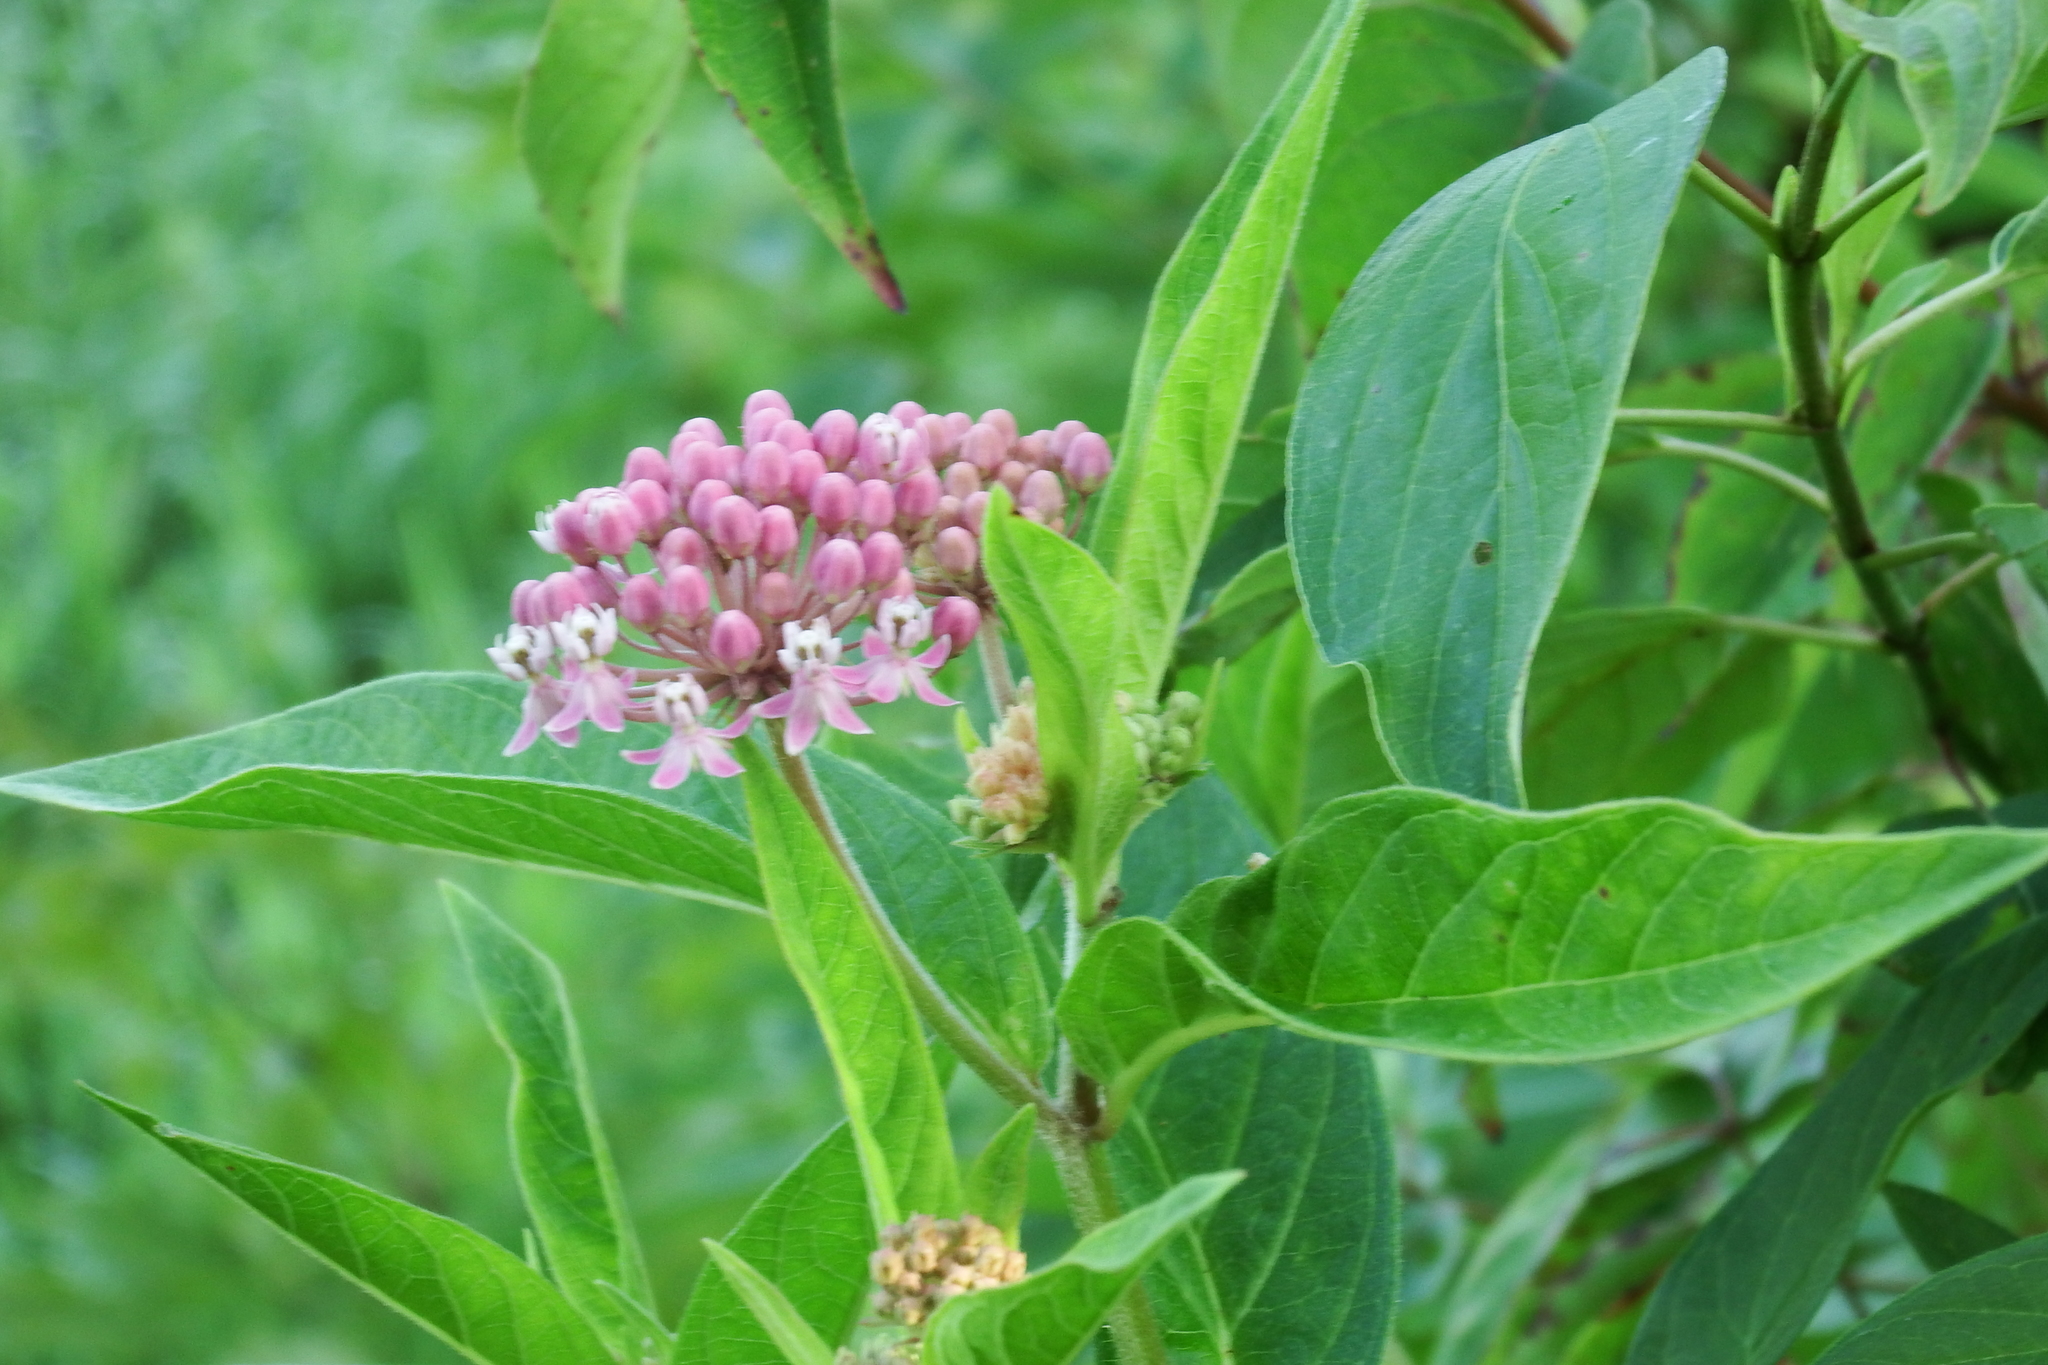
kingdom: Plantae
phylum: Tracheophyta
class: Magnoliopsida
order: Gentianales
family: Apocynaceae
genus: Asclepias
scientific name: Asclepias incarnata
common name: Swamp milkweed
